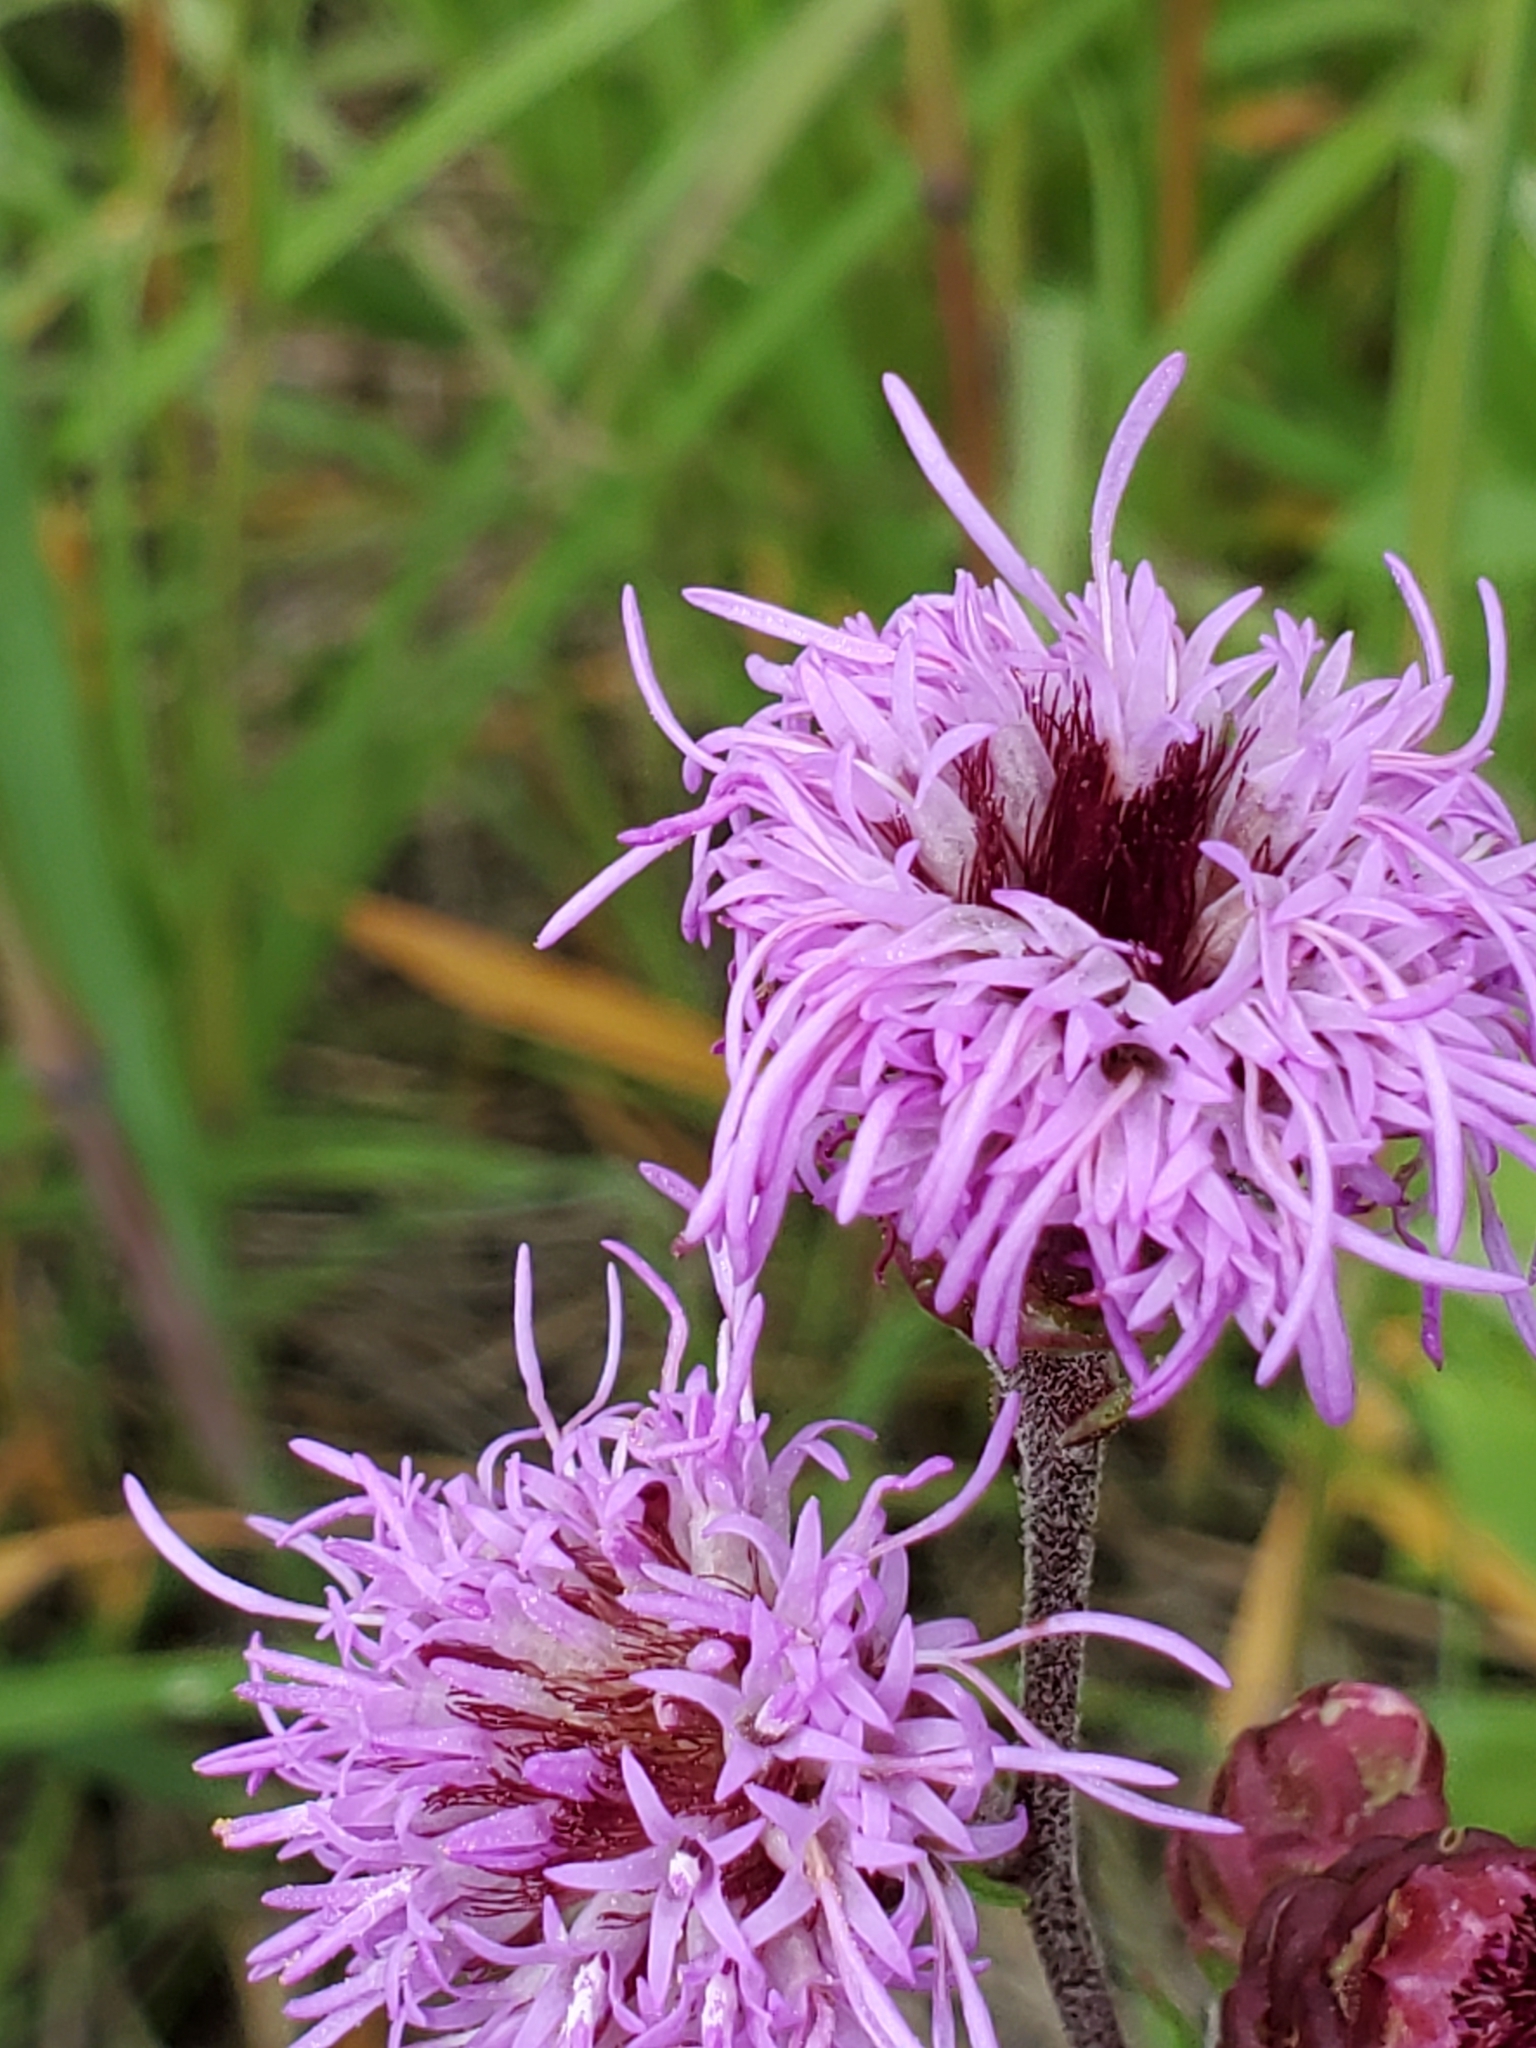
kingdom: Plantae
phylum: Tracheophyta
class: Magnoliopsida
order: Asterales
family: Asteraceae
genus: Liatris
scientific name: Liatris ligulistylis
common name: Northern plains gayfeather
